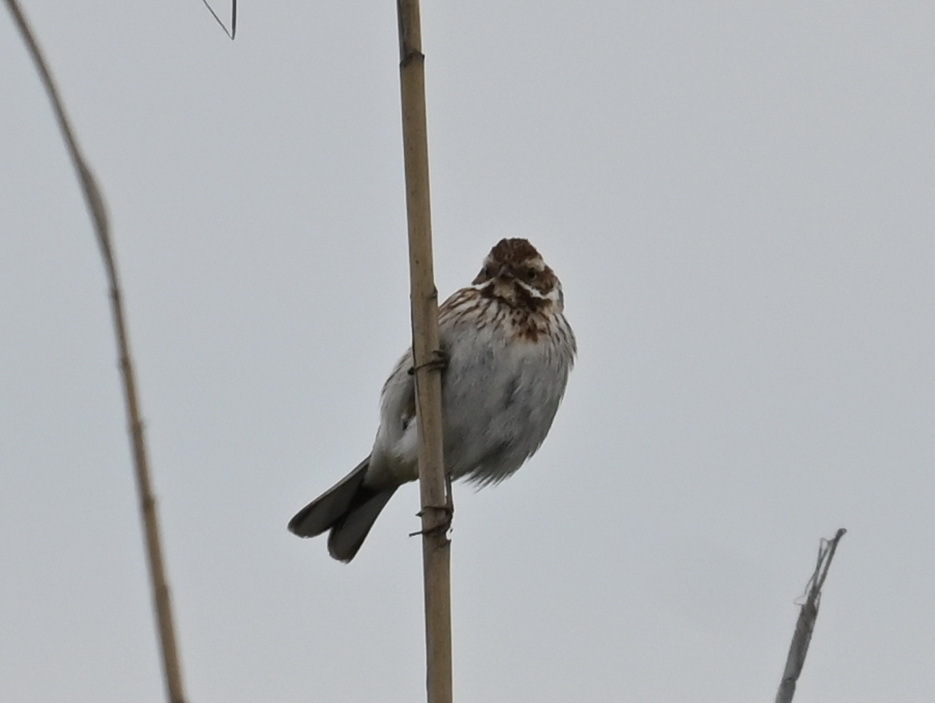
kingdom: Animalia
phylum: Chordata
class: Aves
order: Passeriformes
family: Emberizidae
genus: Emberiza
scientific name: Emberiza schoeniclus
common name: Reed bunting
